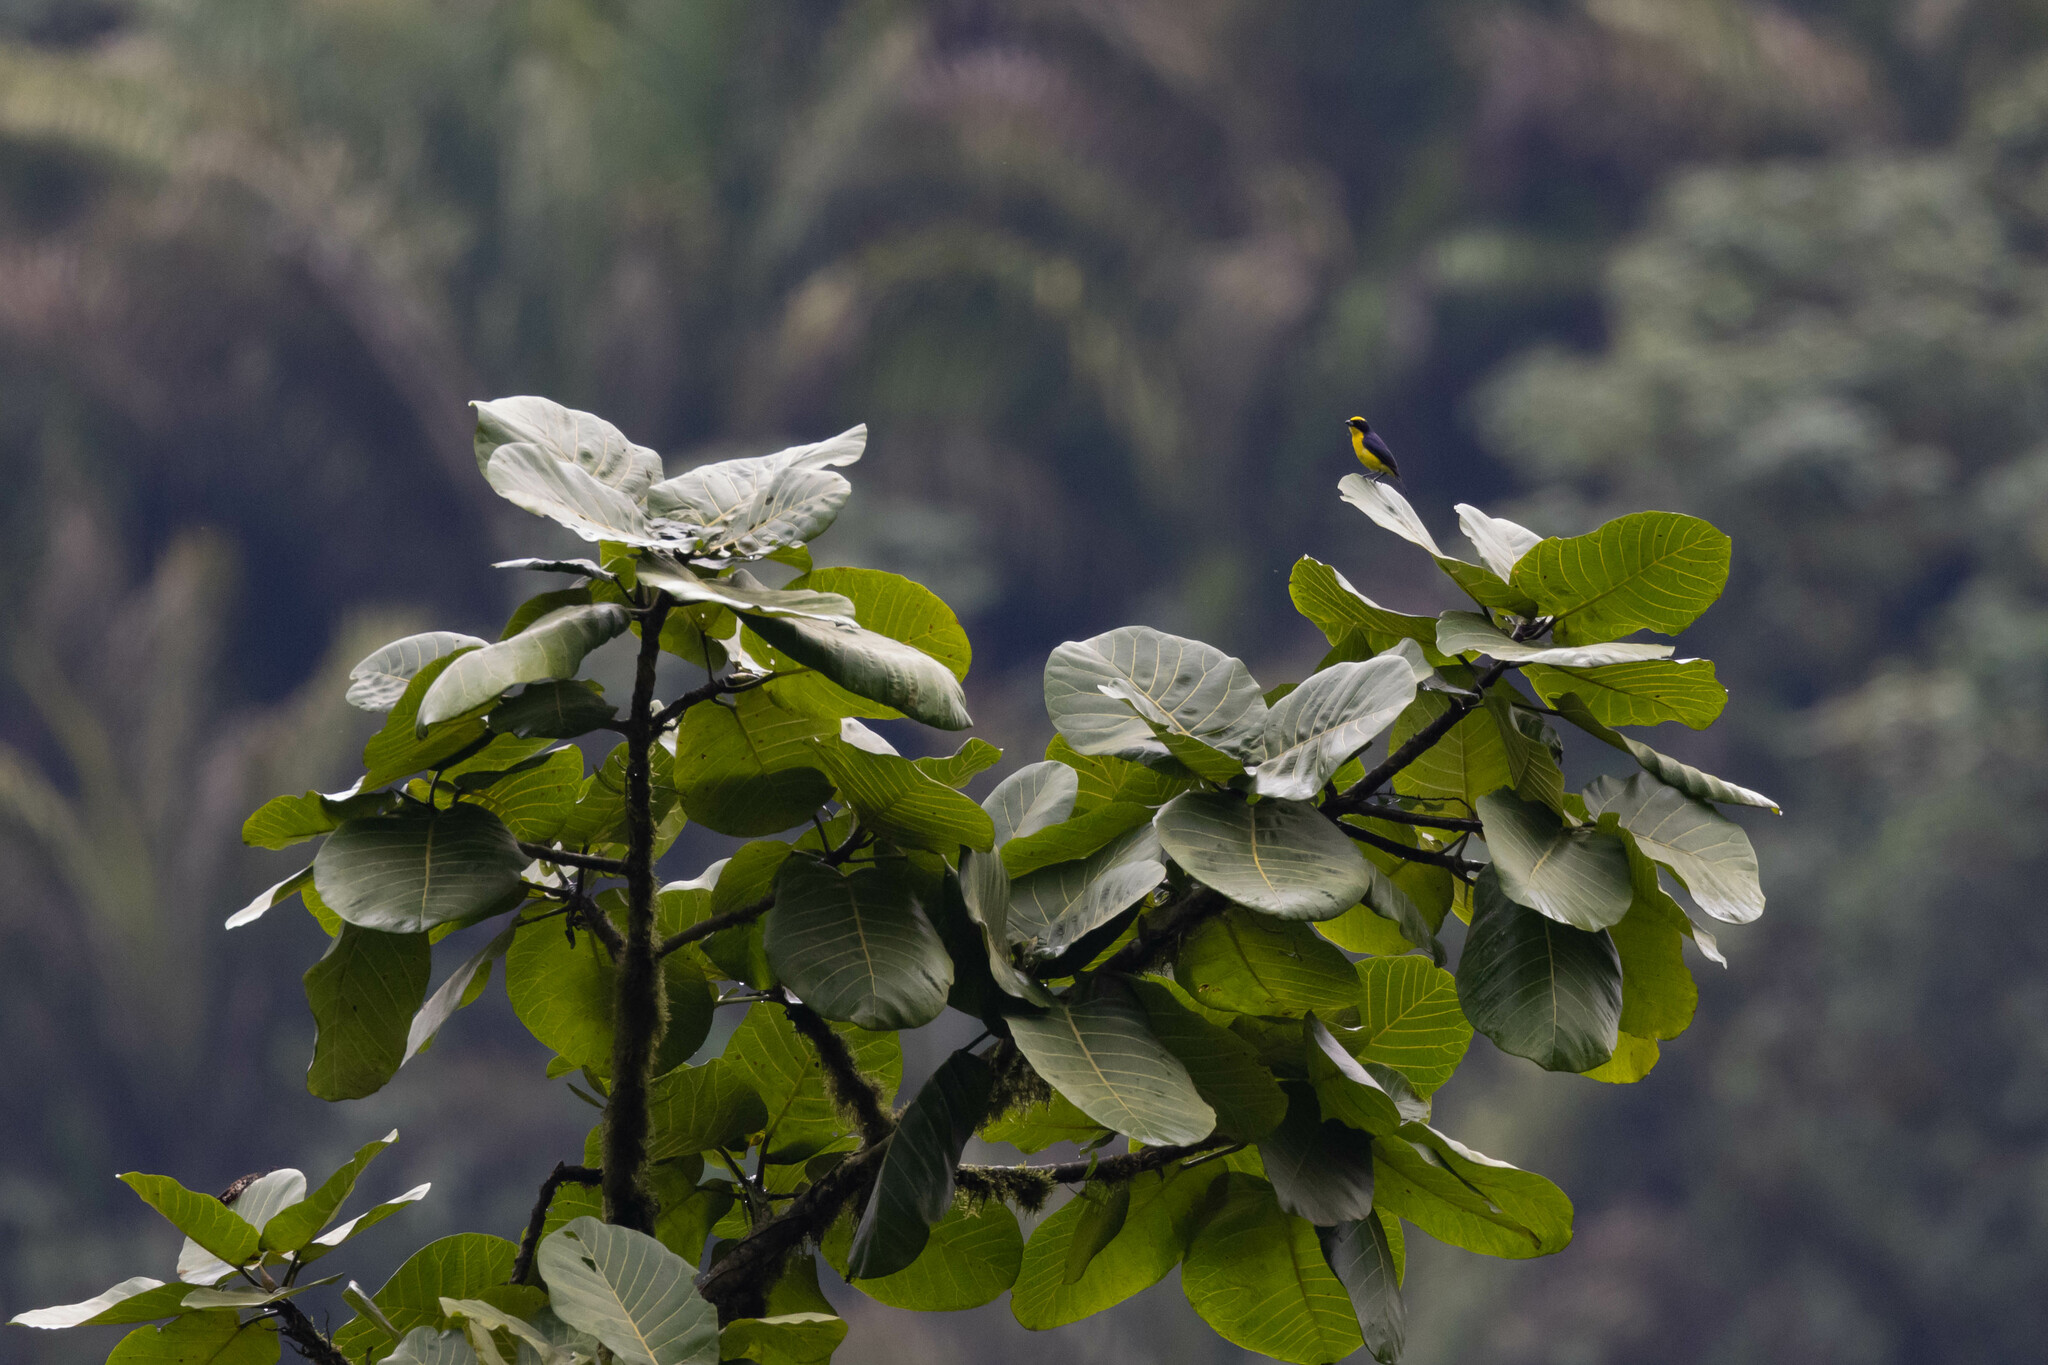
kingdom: Animalia
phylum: Chordata
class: Aves
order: Passeriformes
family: Fringillidae
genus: Euphonia
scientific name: Euphonia laniirostris
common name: Thick-billed euphonia
